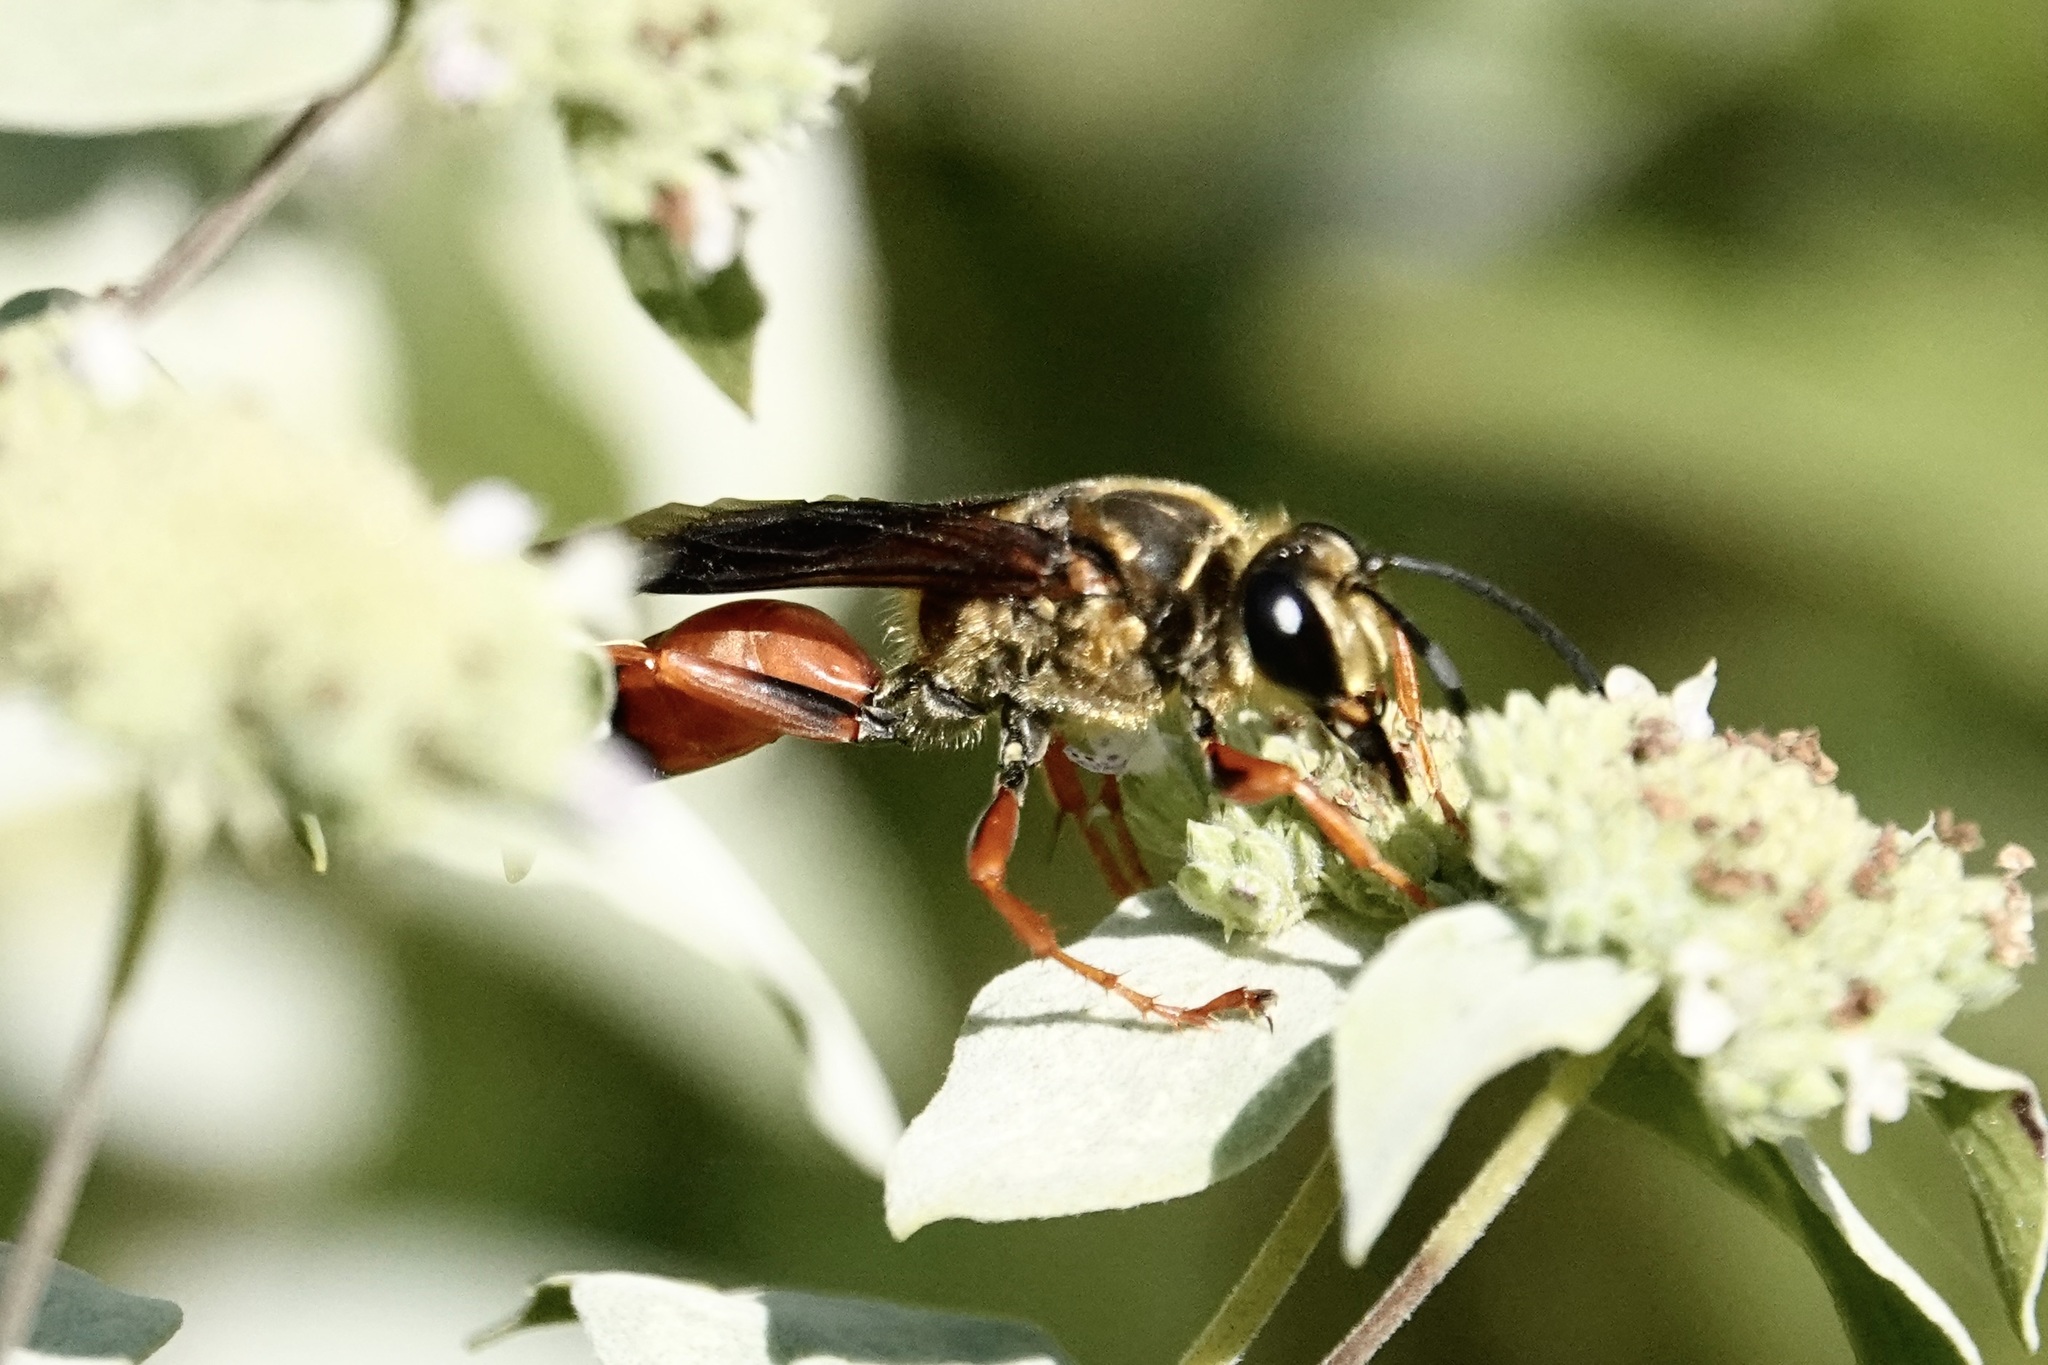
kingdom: Animalia
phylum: Arthropoda
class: Insecta
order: Hymenoptera
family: Sphecidae
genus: Sphex
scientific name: Sphex ichneumoneus
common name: Great golden digger wasp
